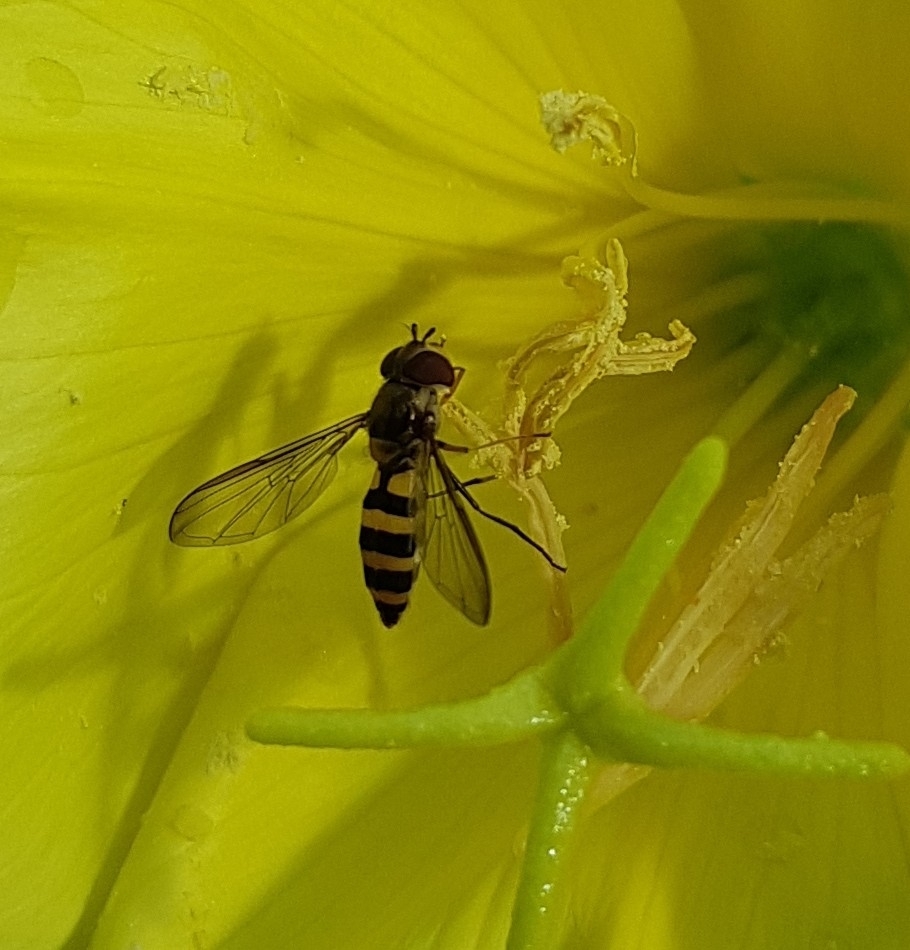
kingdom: Animalia
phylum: Arthropoda
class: Insecta
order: Diptera
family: Syrphidae
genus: Meliscaeva
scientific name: Meliscaeva cinctella
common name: American thintail fly
